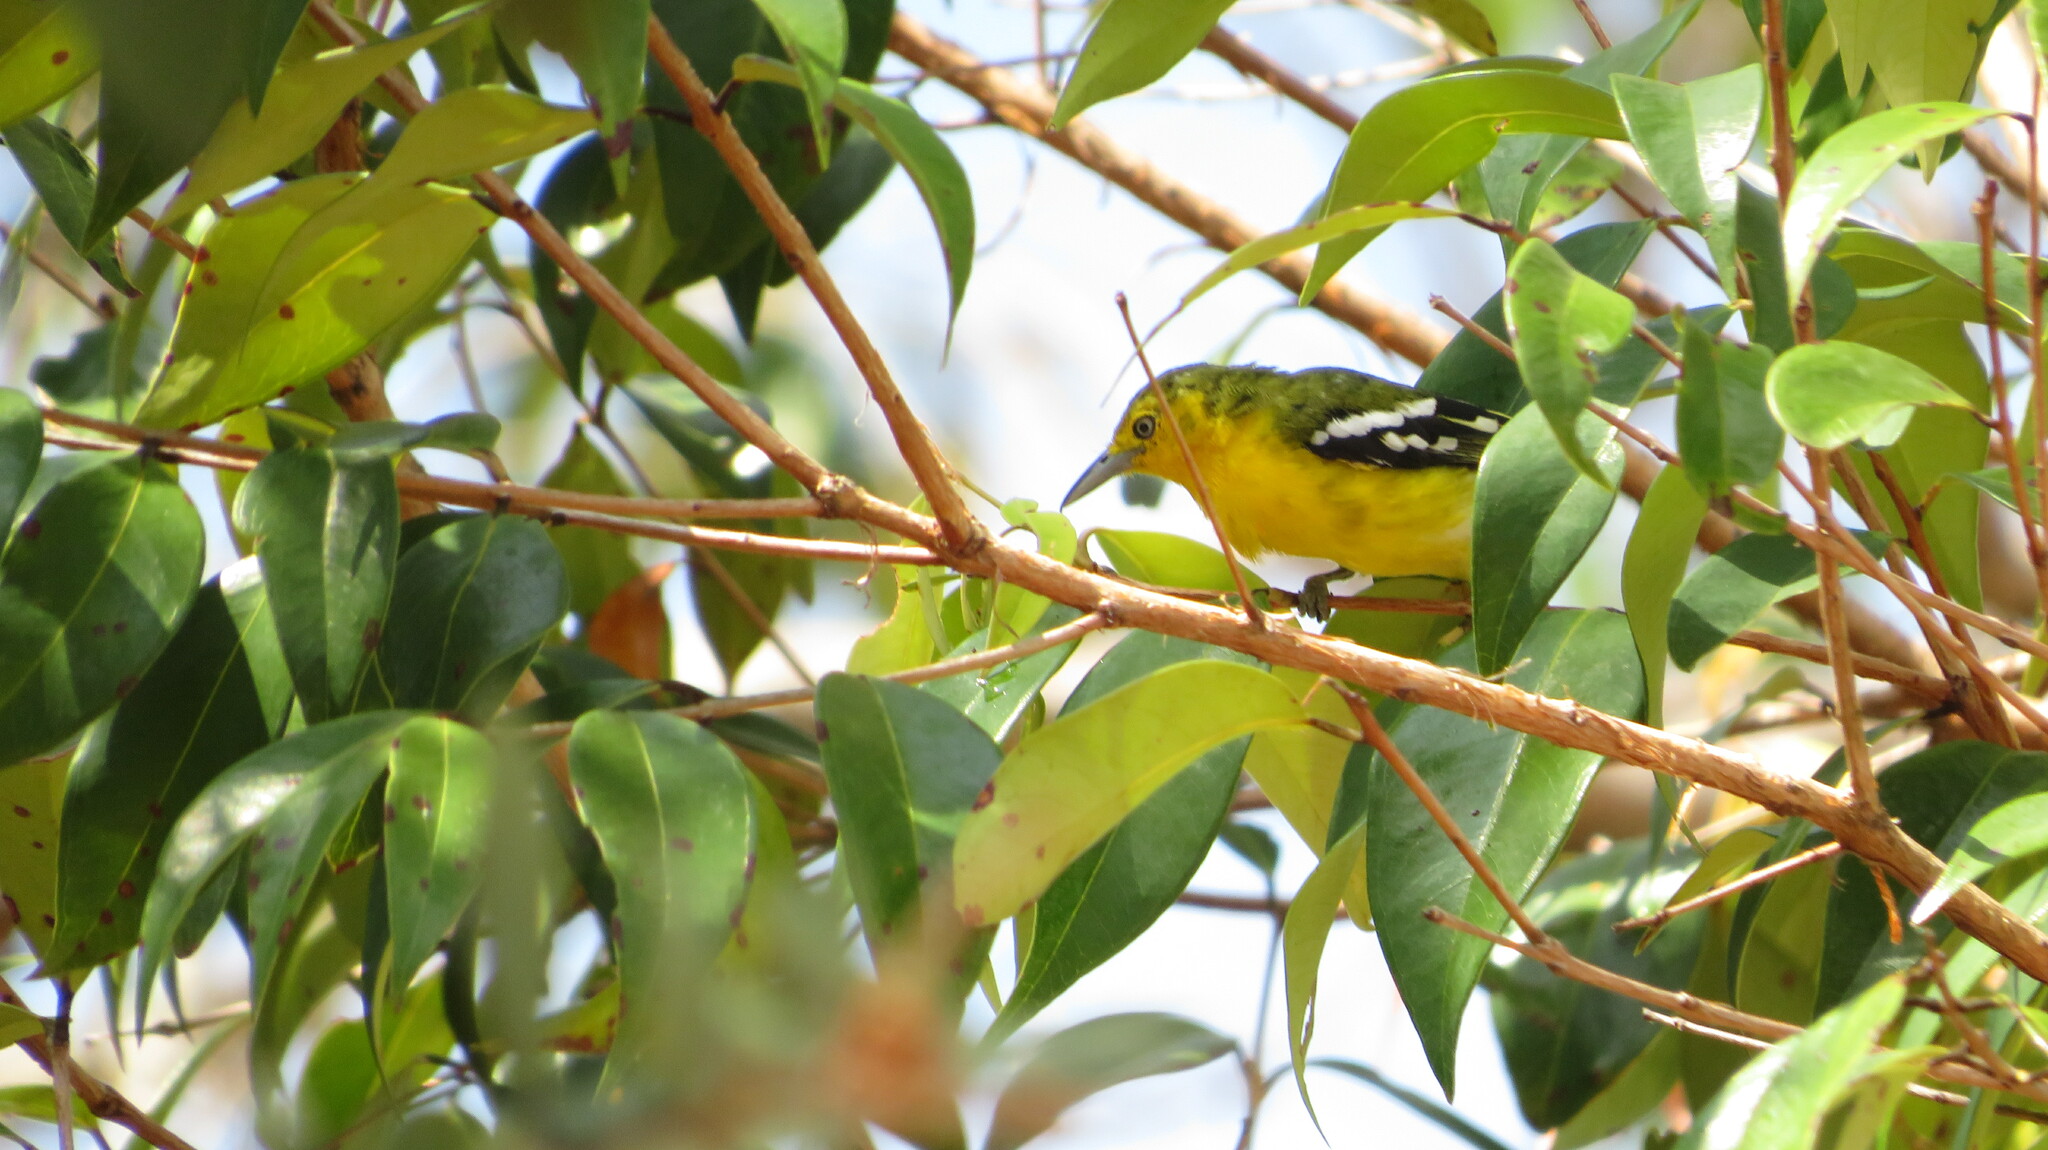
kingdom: Animalia
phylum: Chordata
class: Aves
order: Passeriformes
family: Aegithinidae
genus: Aegithina
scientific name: Aegithina tiphia
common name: Common iora
